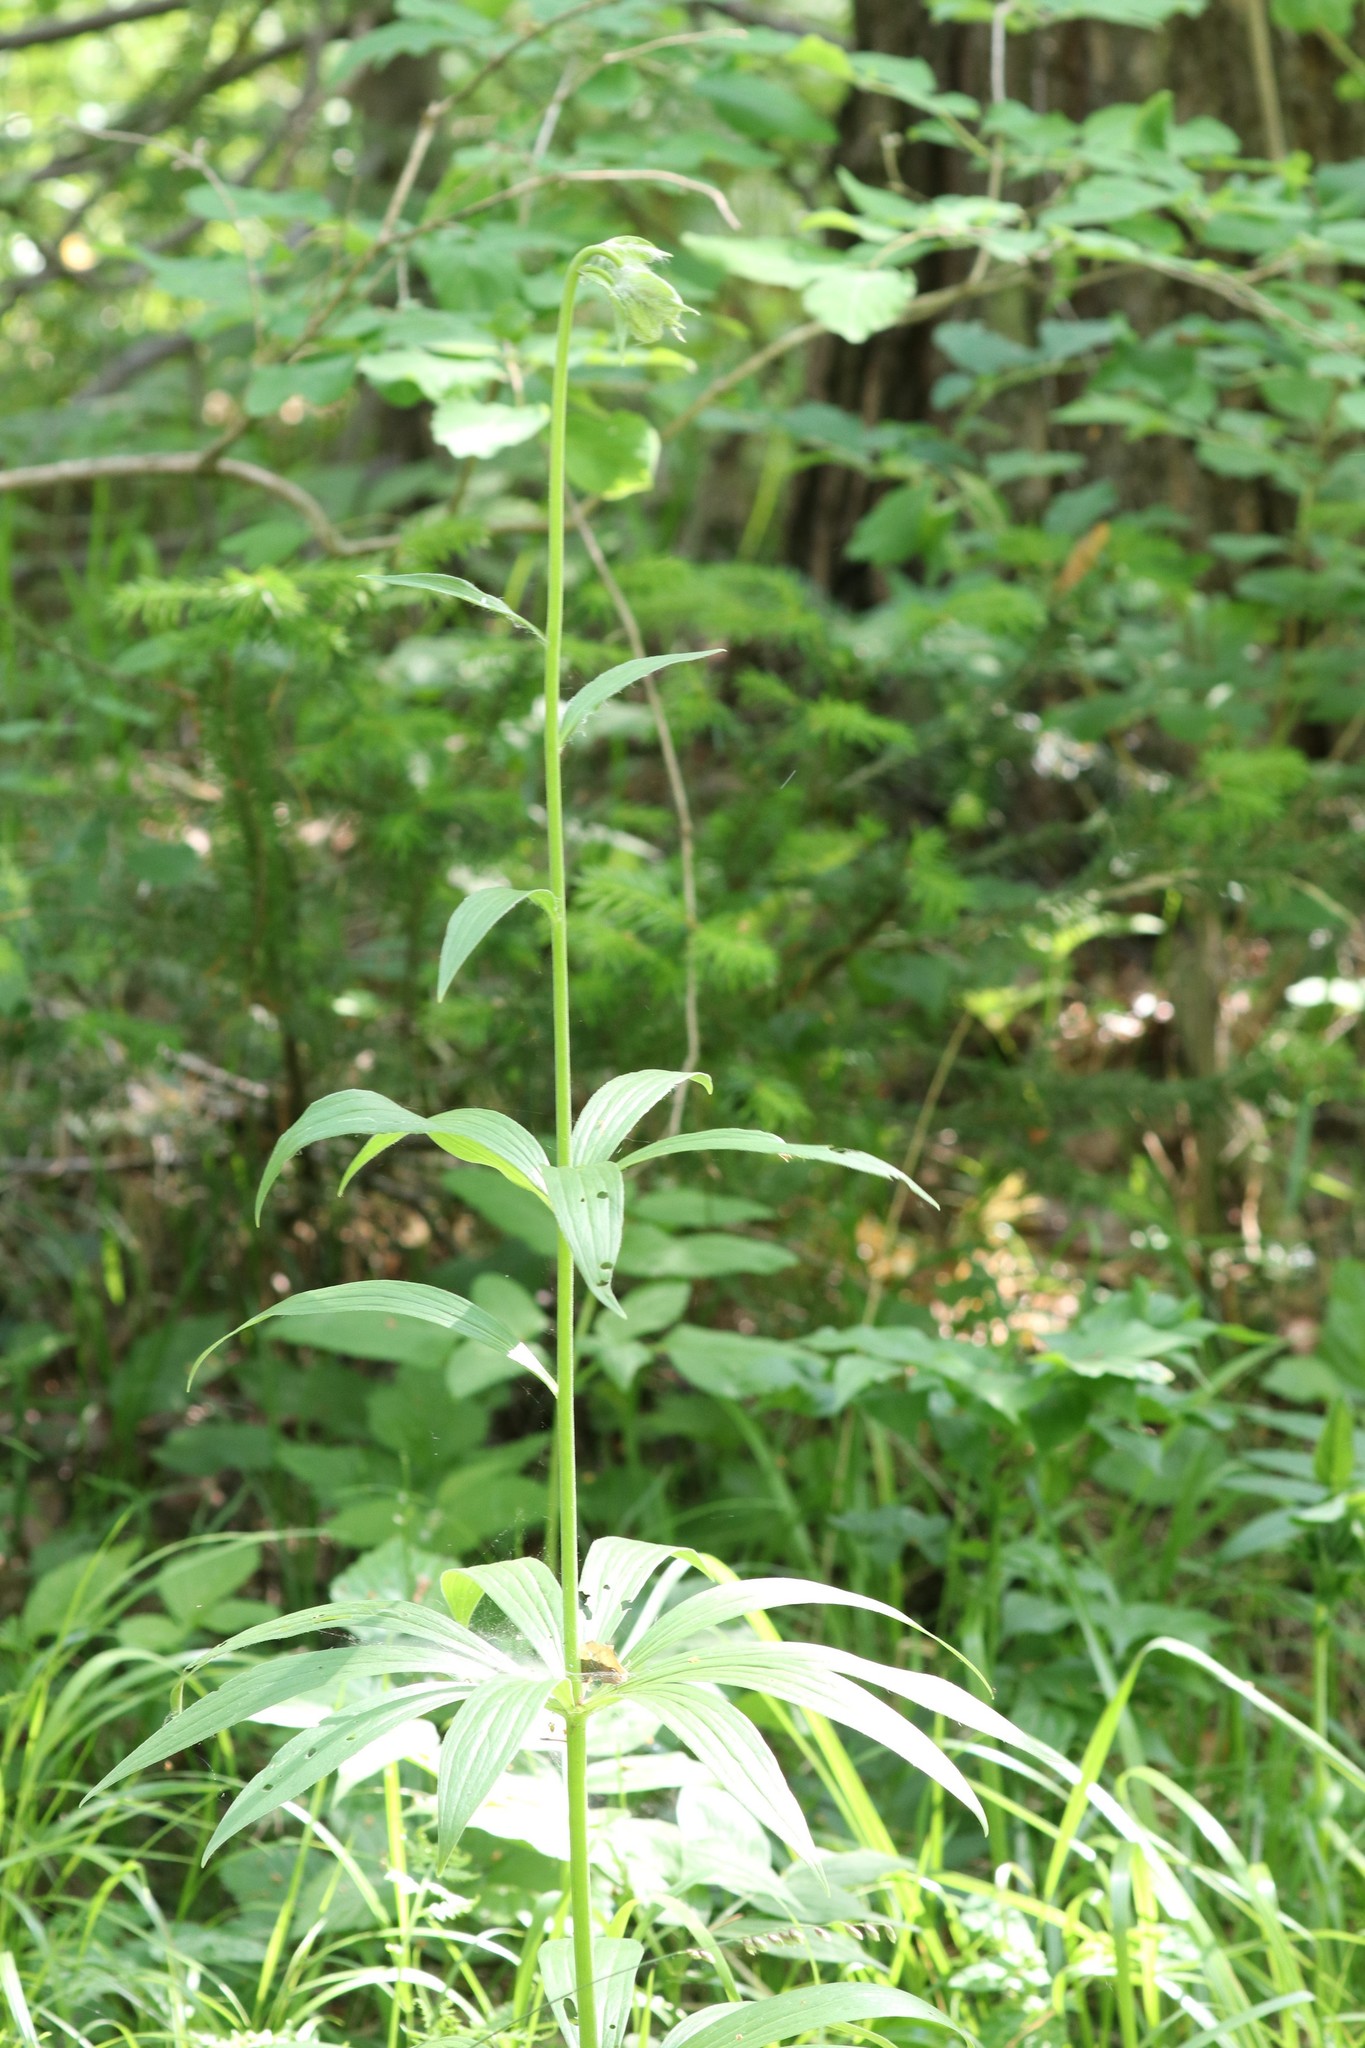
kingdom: Plantae
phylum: Tracheophyta
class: Liliopsida
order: Liliales
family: Liliaceae
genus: Lilium
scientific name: Lilium martagon
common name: Martagon lily
